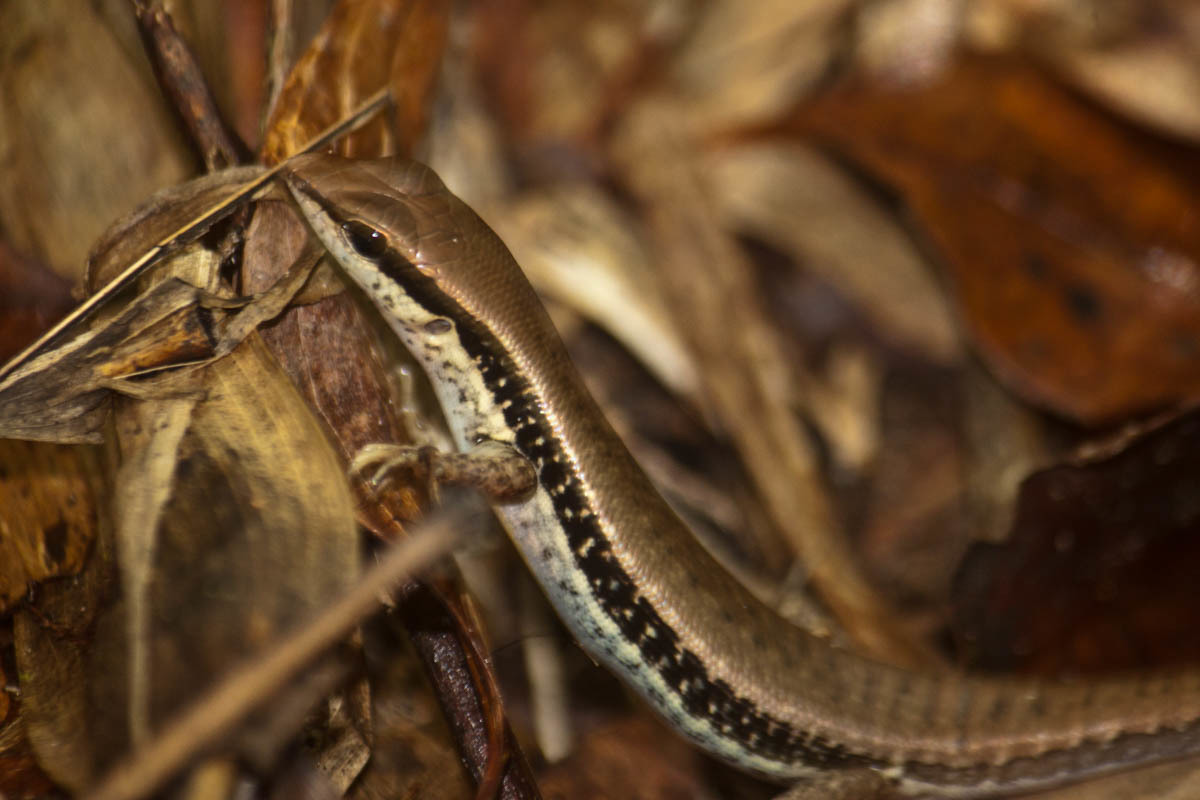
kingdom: Animalia
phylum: Chordata
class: Squamata
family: Scincidae
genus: Sphenomorphus
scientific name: Sphenomorphus maculatus
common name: Maculated forest skink
